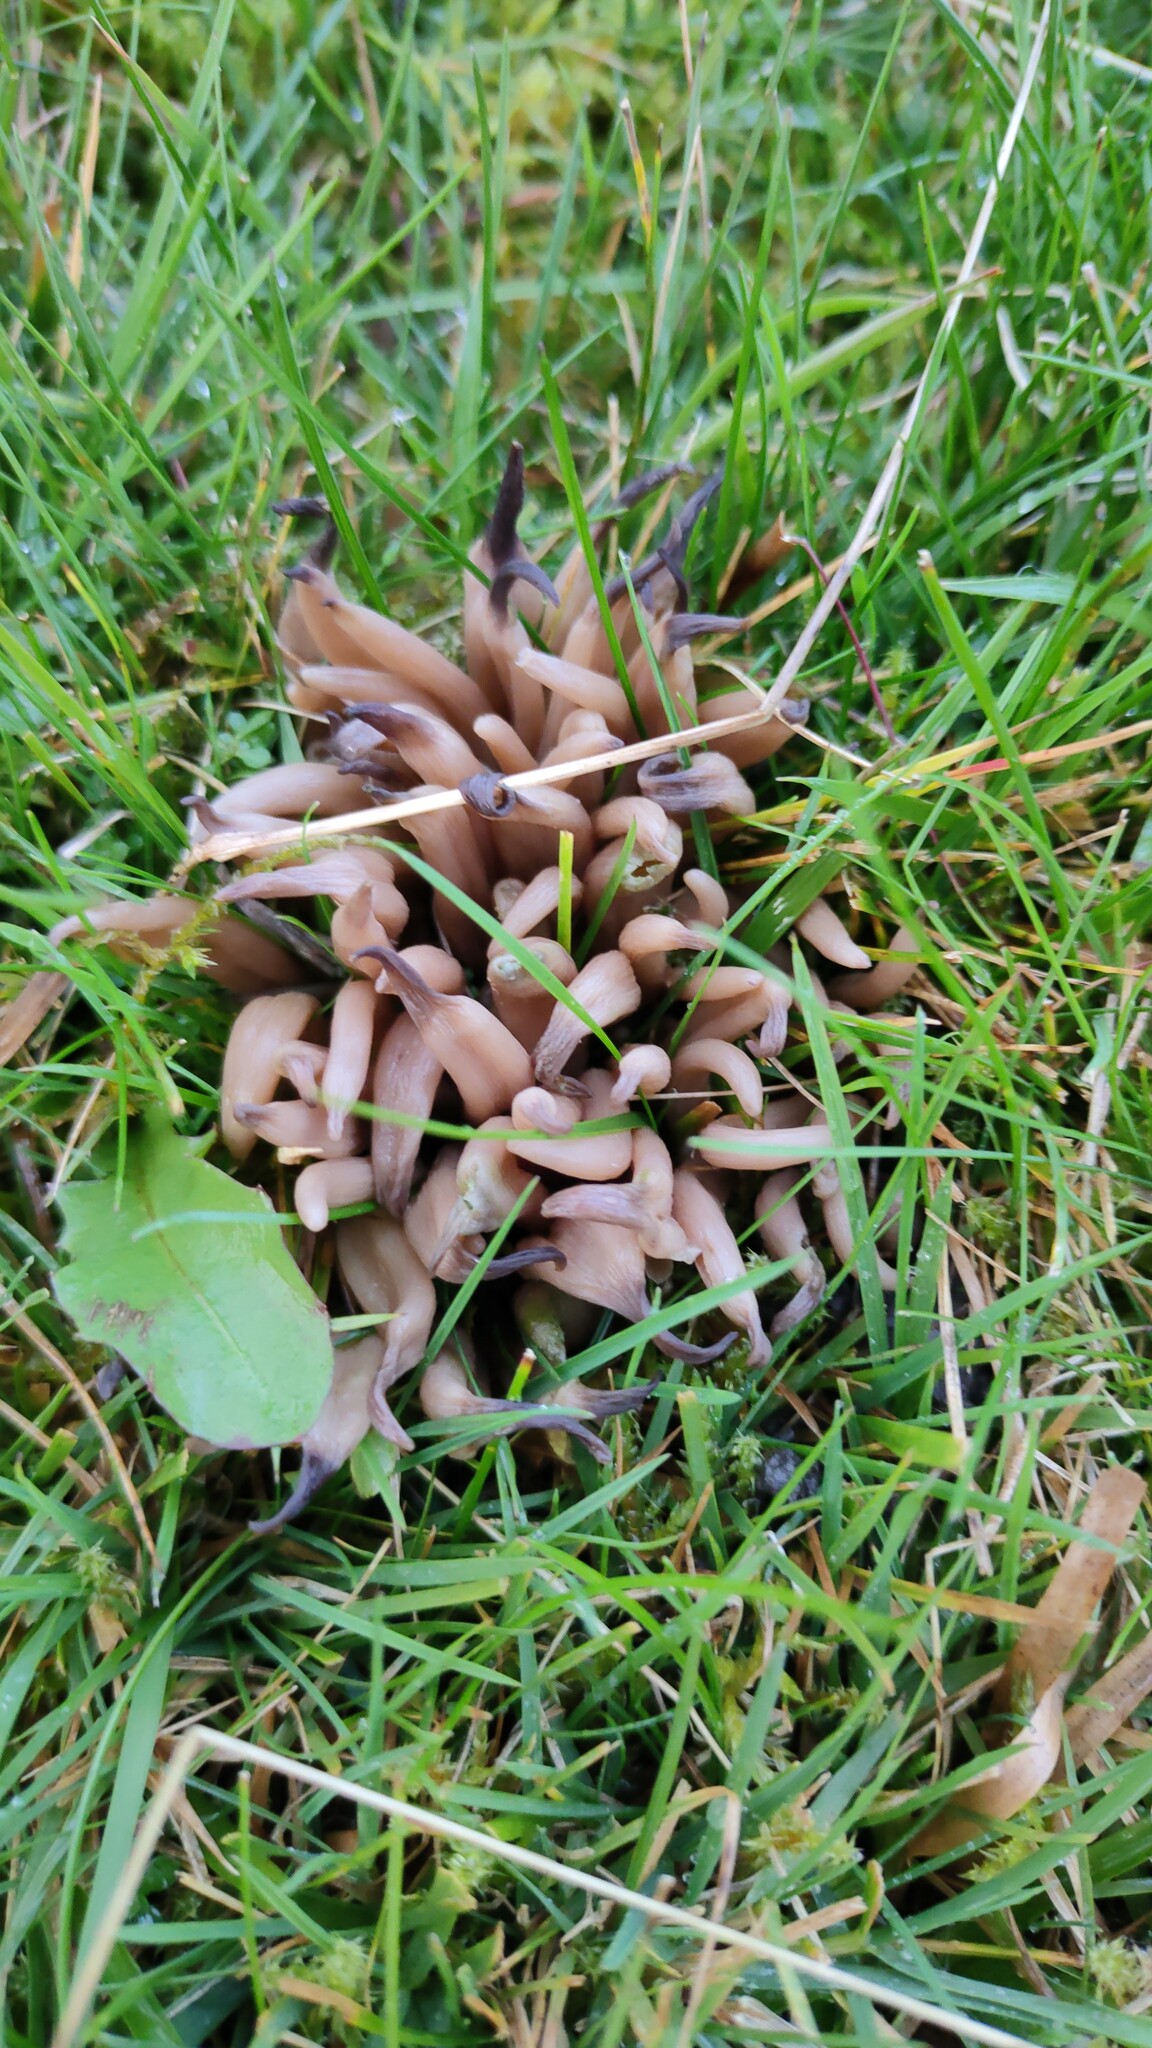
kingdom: Fungi
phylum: Basidiomycota
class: Agaricomycetes
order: Agaricales
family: Clavariaceae
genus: Clavaria
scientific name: Clavaria fumosa
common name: Smoky spindles
